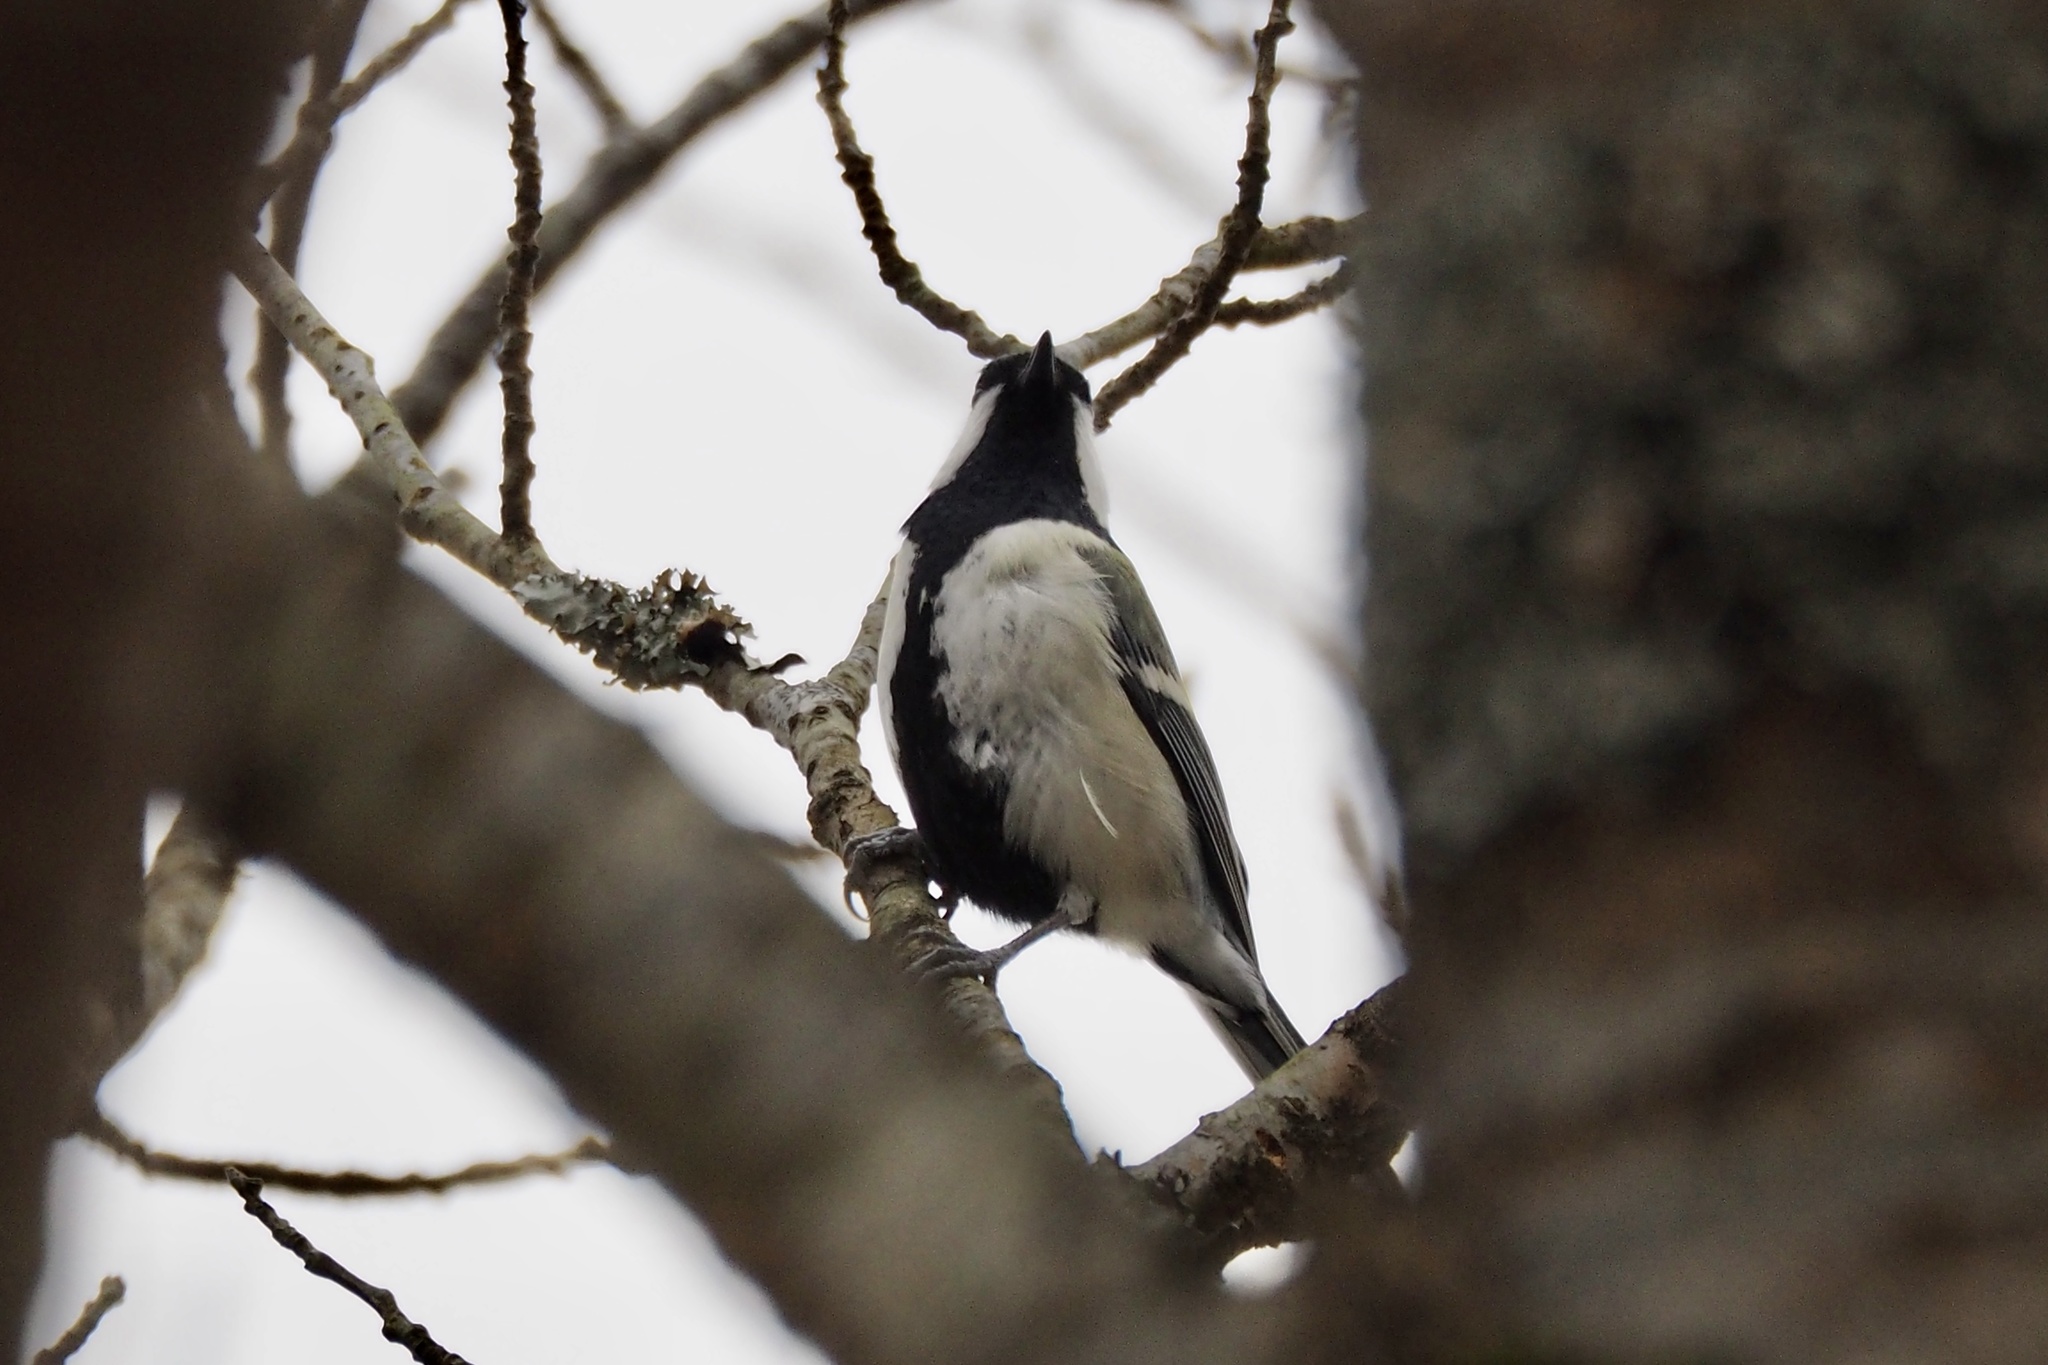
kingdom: Animalia
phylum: Chordata
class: Aves
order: Passeriformes
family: Paridae
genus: Parus
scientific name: Parus minor
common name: Japanese tit
